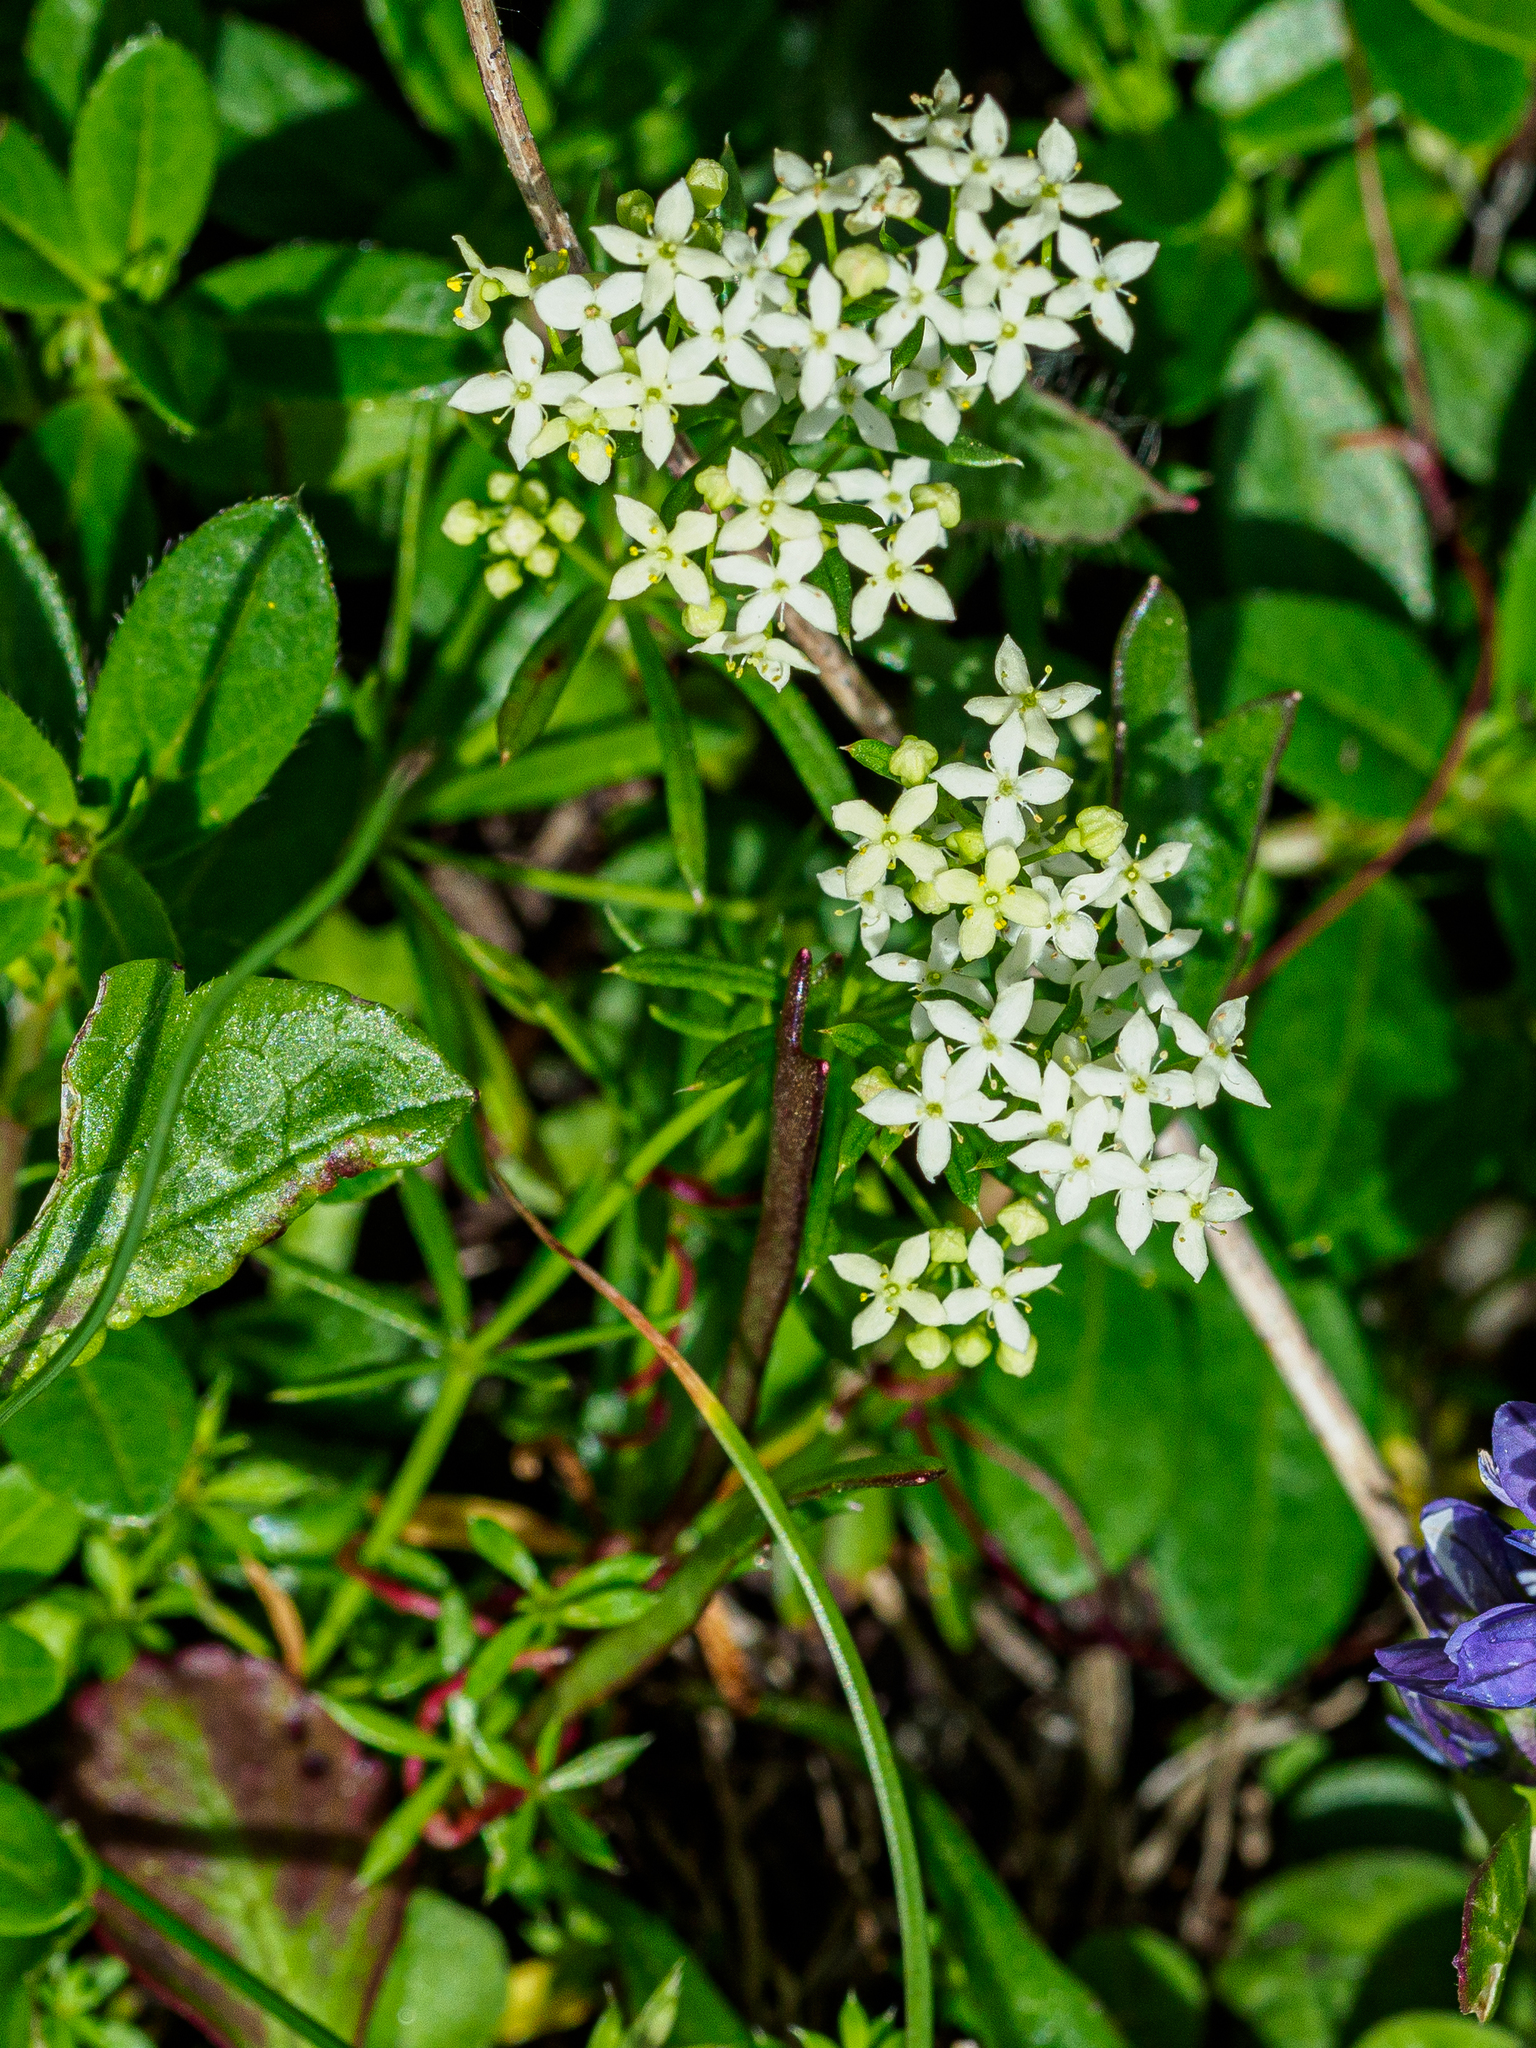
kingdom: Plantae
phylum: Tracheophyta
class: Magnoliopsida
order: Gentianales
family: Rubiaceae
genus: Galium
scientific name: Galium anisophyllon
